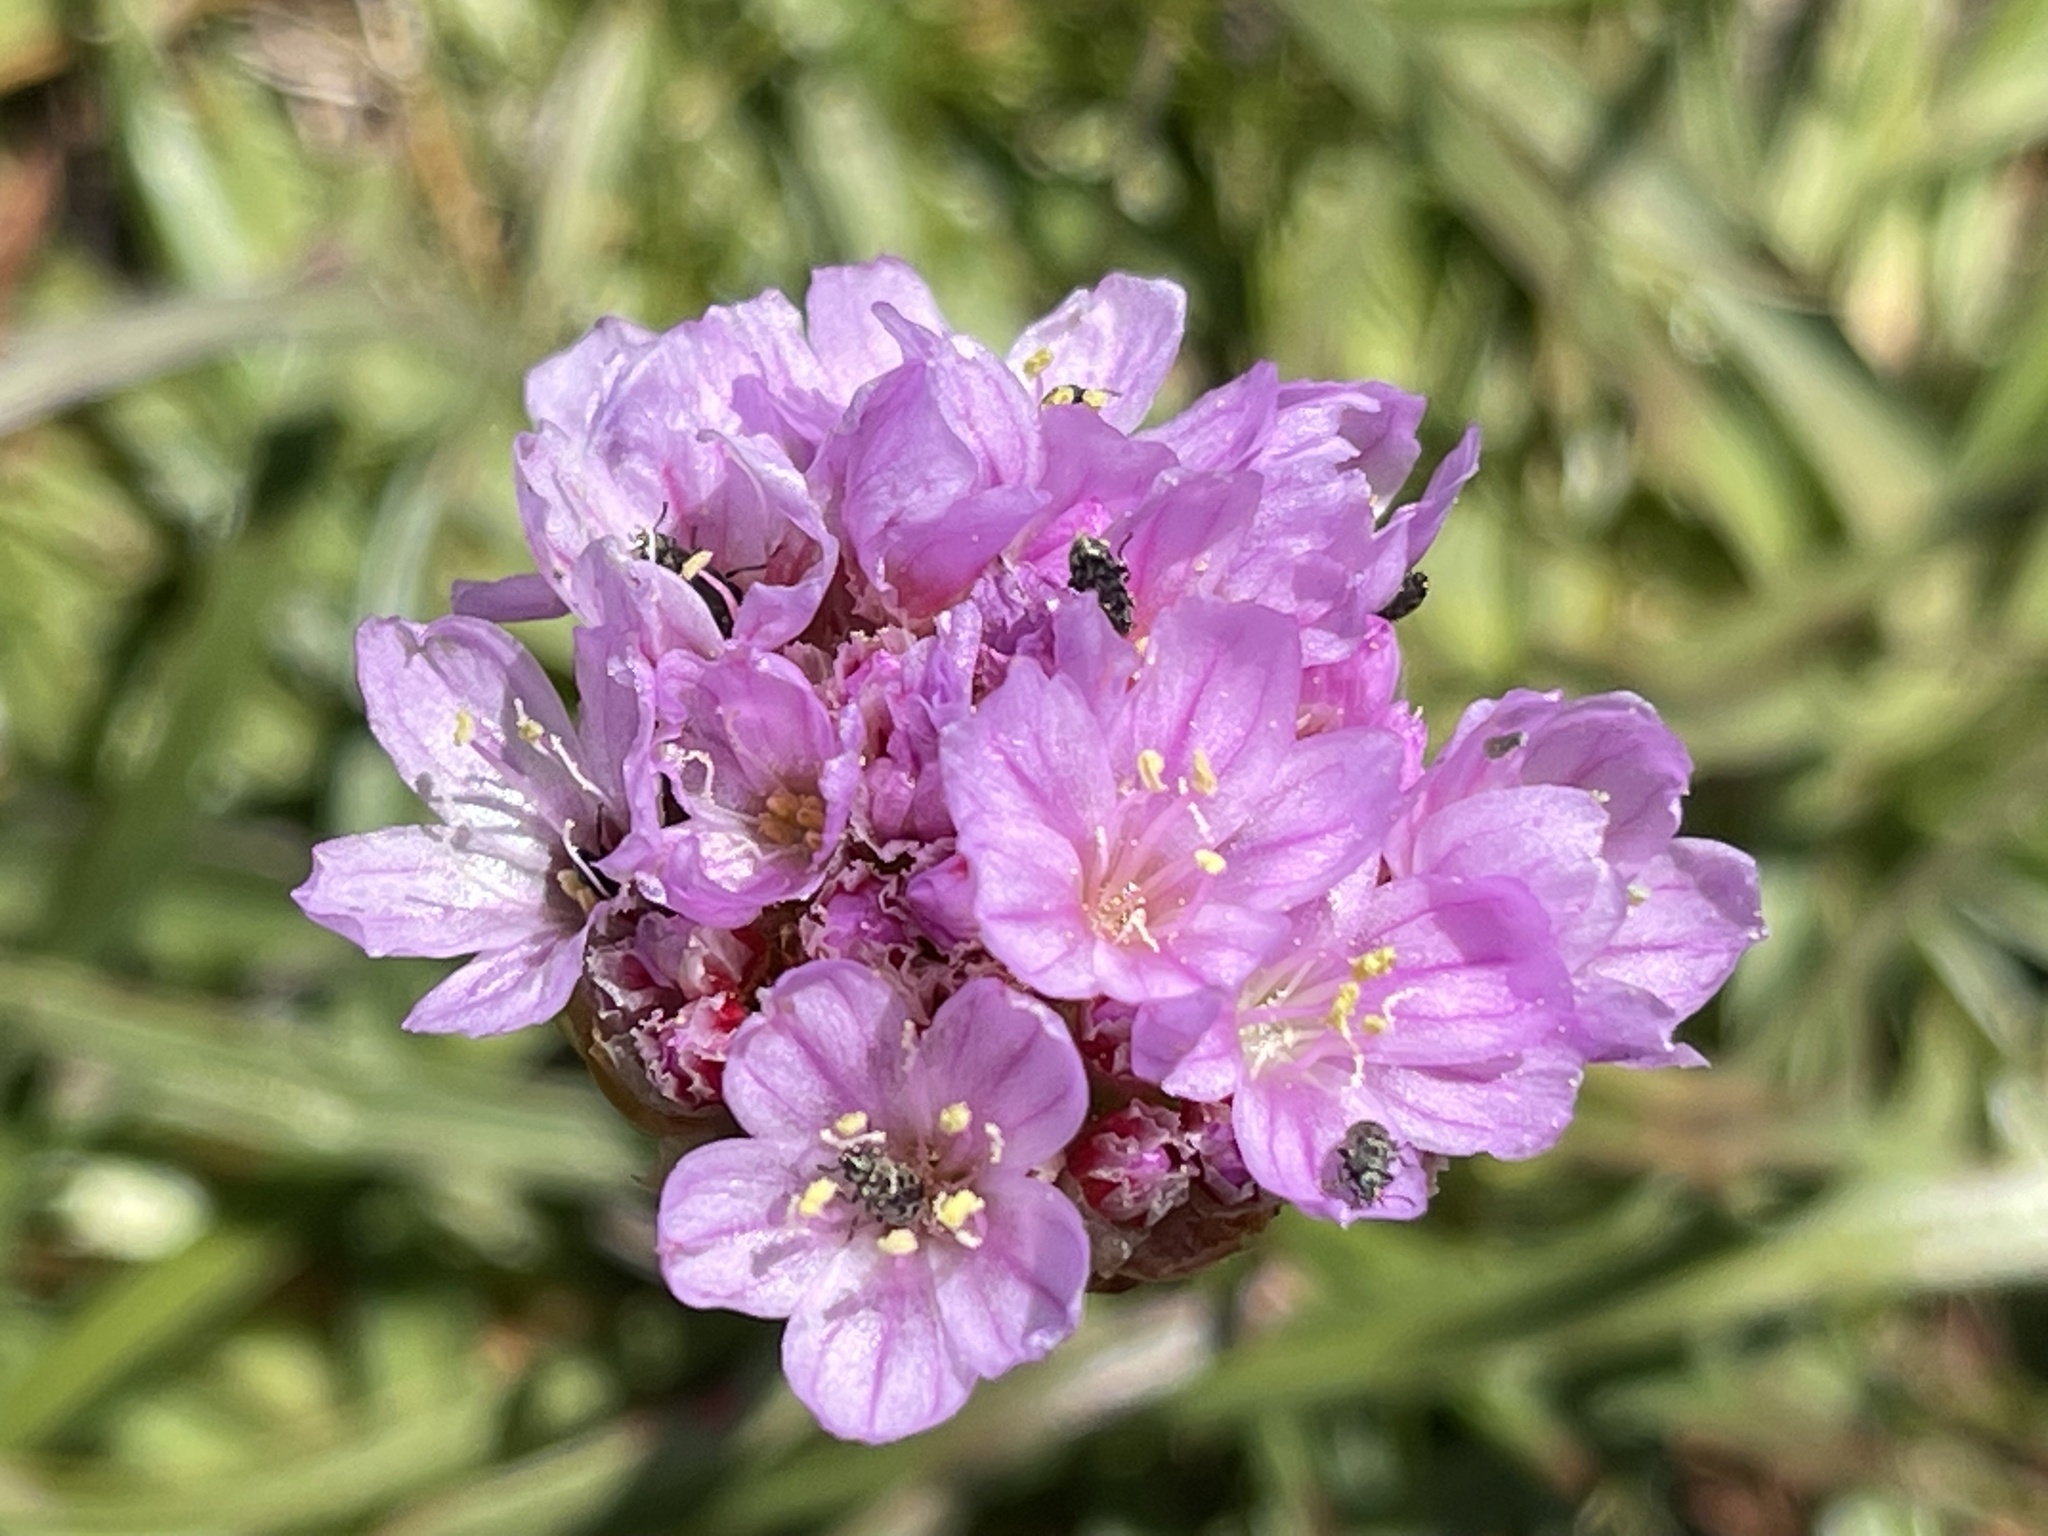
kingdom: Plantae
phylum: Tracheophyta
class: Magnoliopsida
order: Caryophyllales
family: Plumbaginaceae
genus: Armeria
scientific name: Armeria maritima
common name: Thrift
